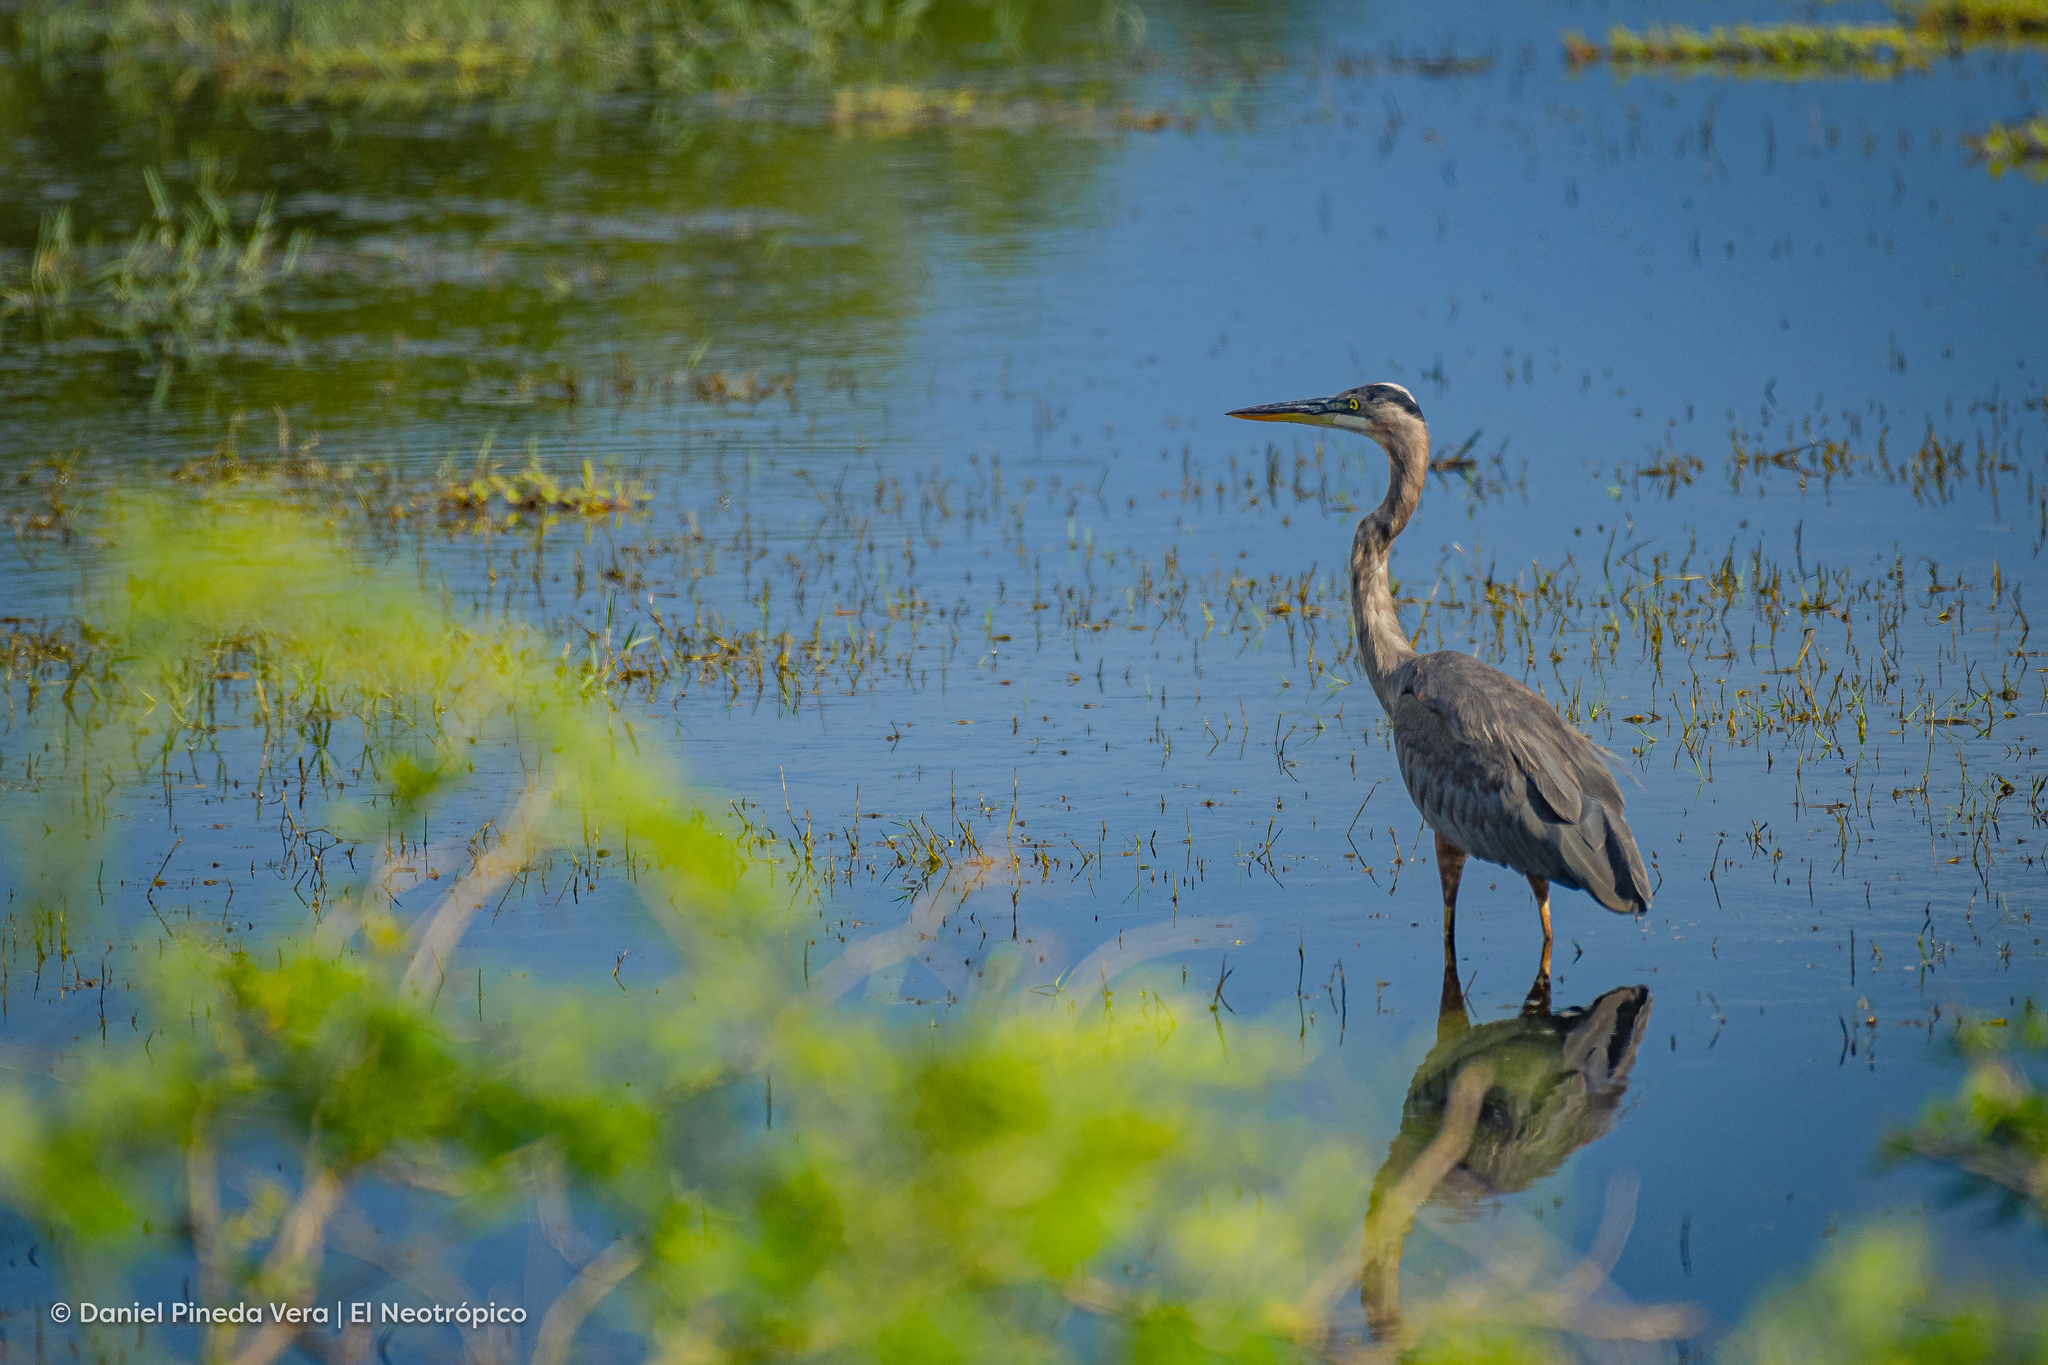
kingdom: Animalia
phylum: Chordata
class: Aves
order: Pelecaniformes
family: Ardeidae
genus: Ardea
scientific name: Ardea herodias
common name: Great blue heron
